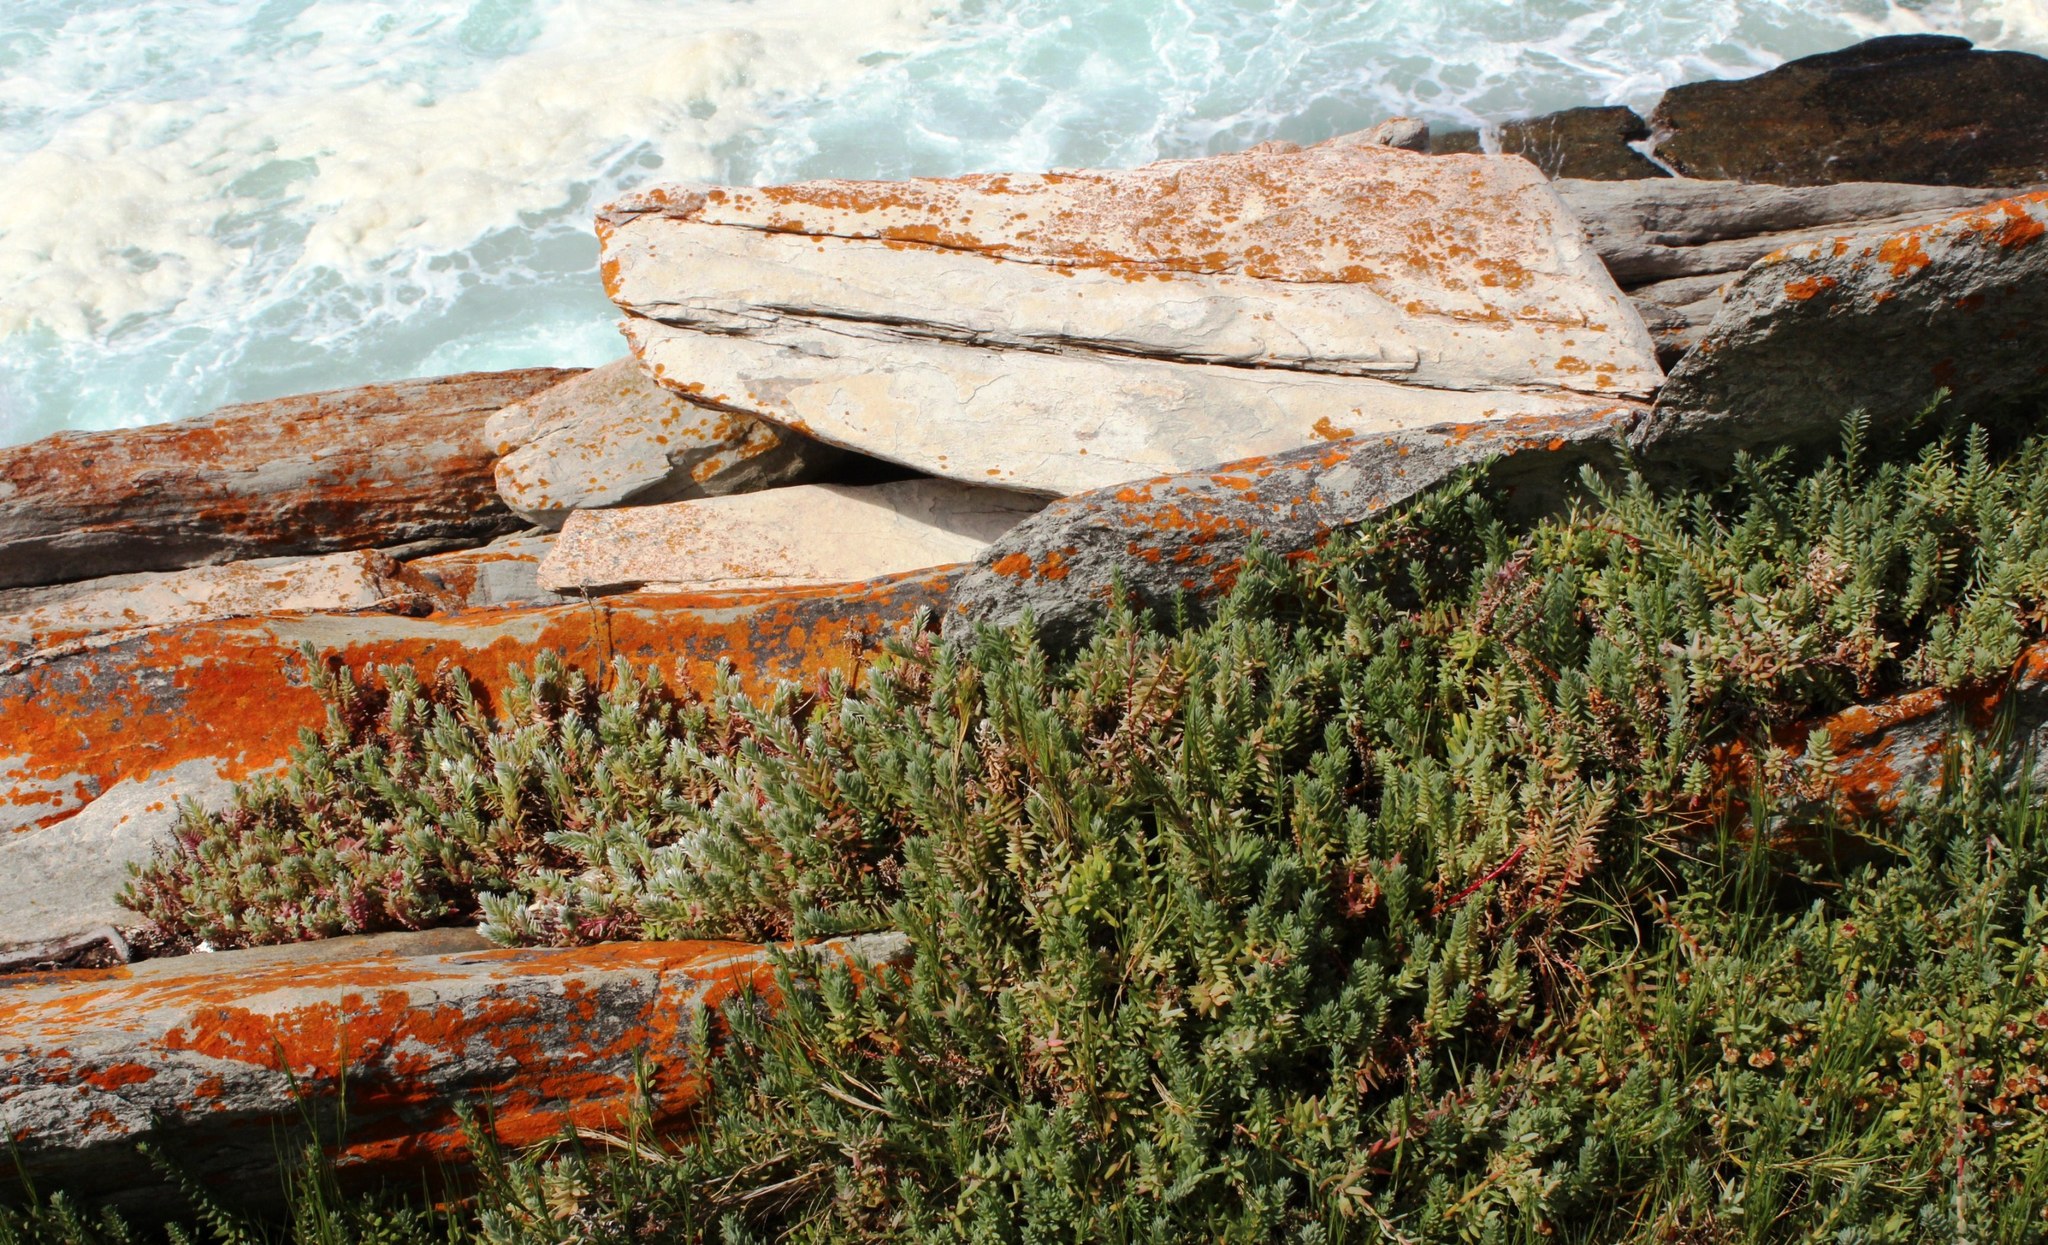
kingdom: Plantae
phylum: Tracheophyta
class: Magnoliopsida
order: Caryophyllales
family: Amaranthaceae
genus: Chenolea
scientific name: Chenolea diffusa
